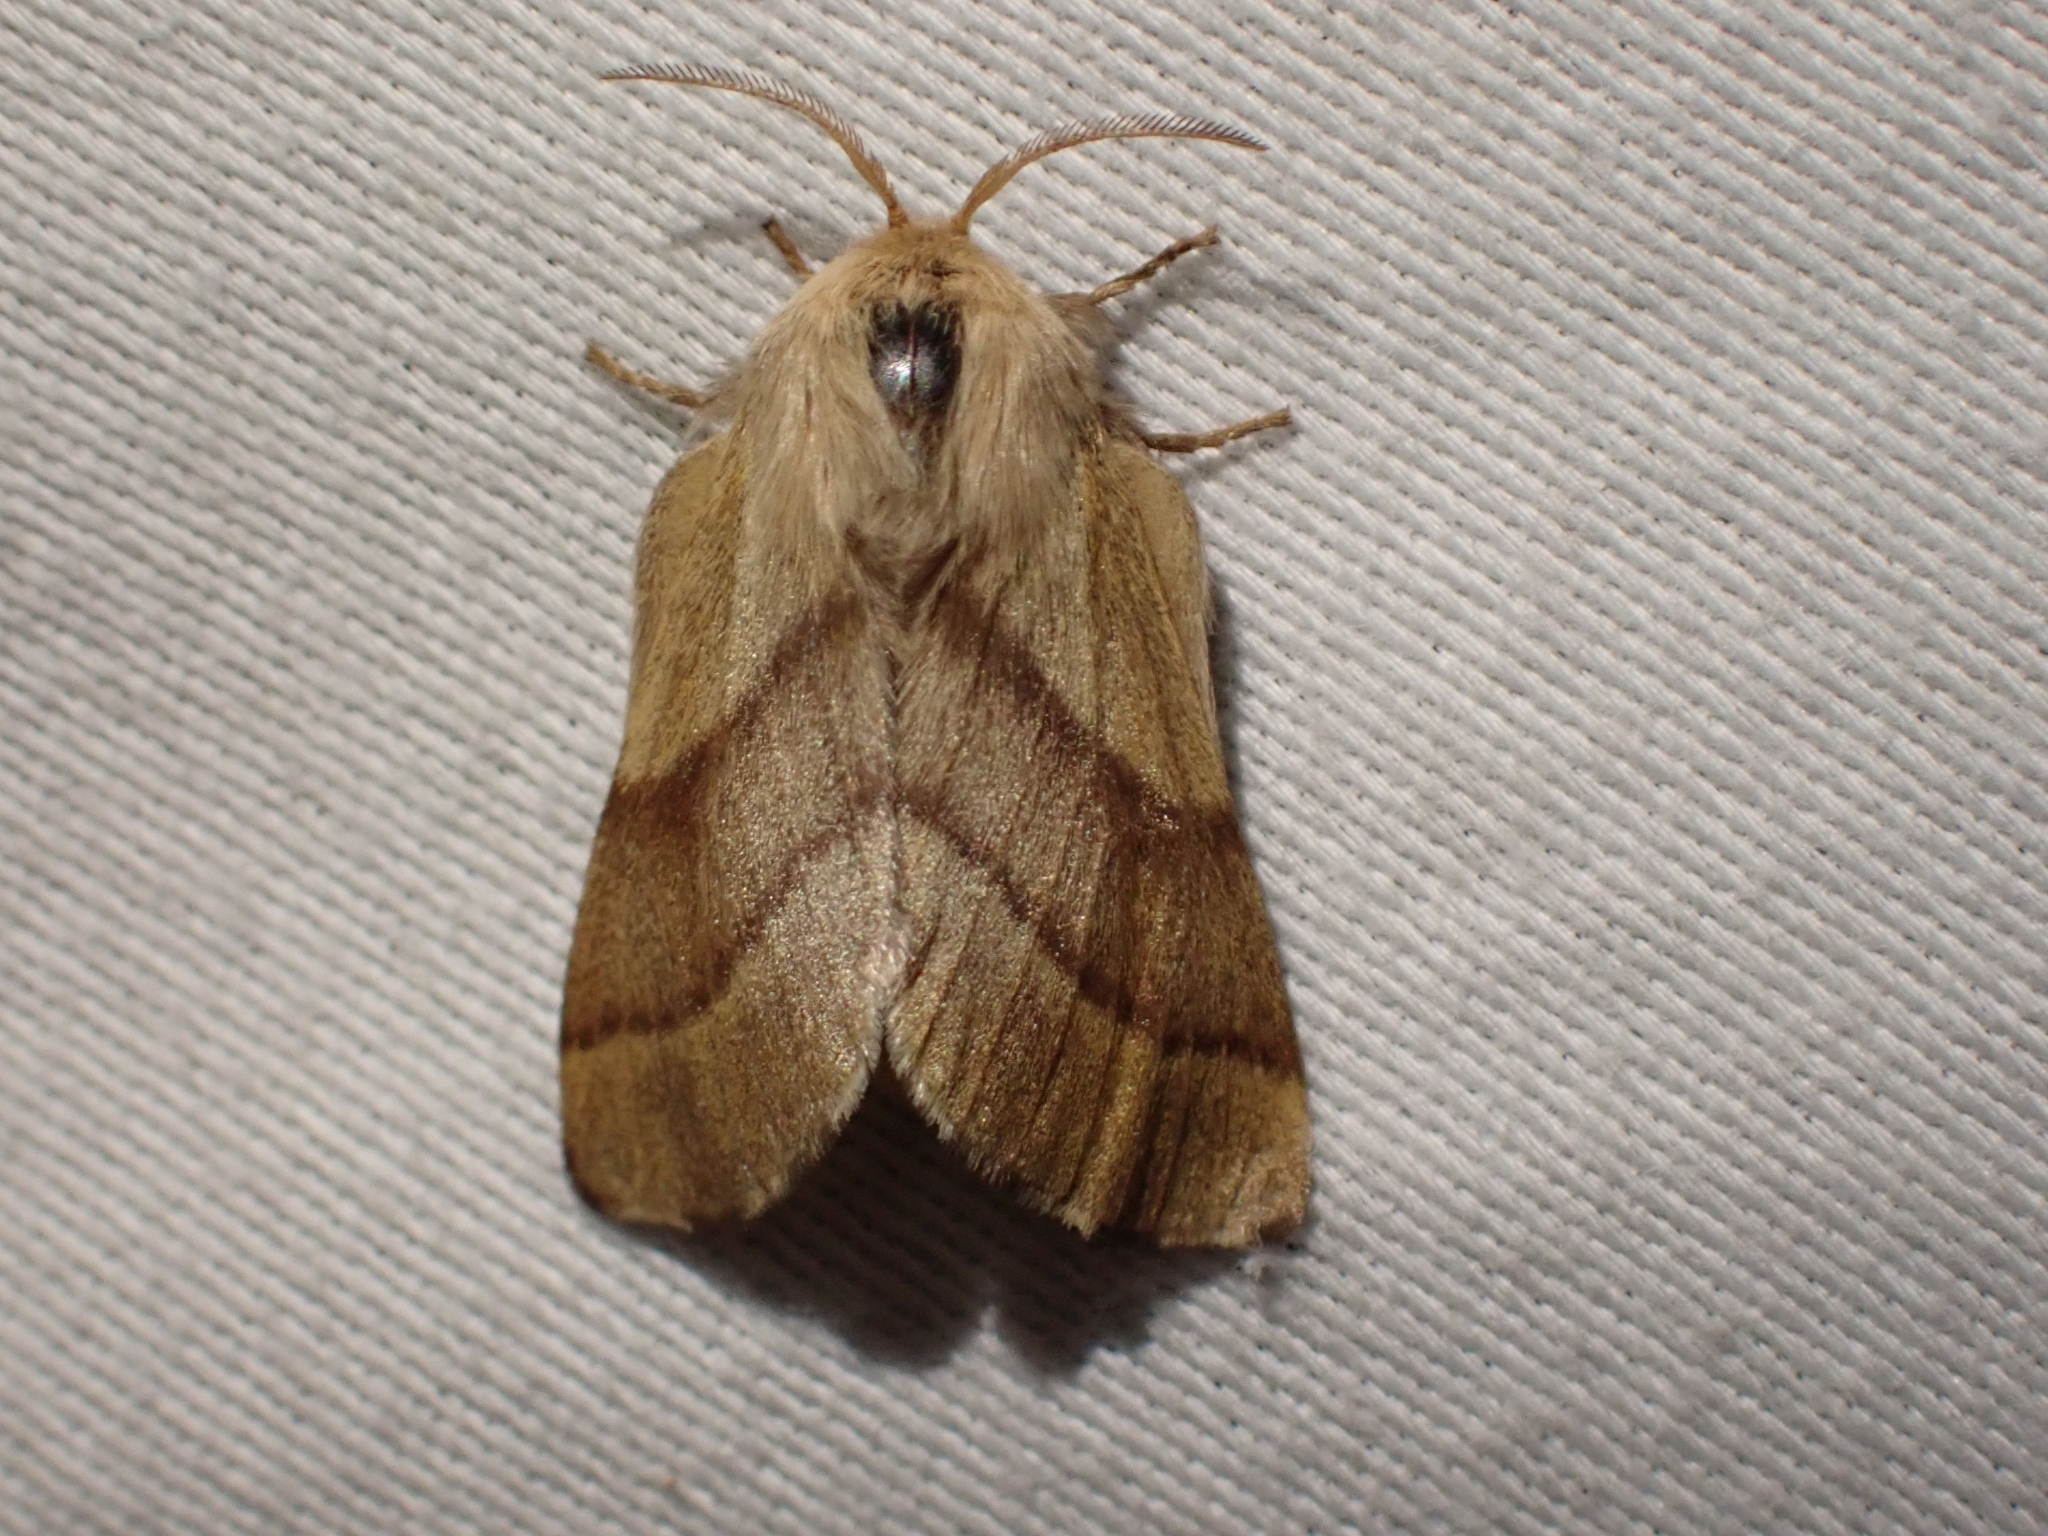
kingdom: Animalia
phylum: Arthropoda
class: Insecta
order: Lepidoptera
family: Lasiocampidae
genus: Malacosoma
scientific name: Malacosoma disstria
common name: Forest tent caterpillar
